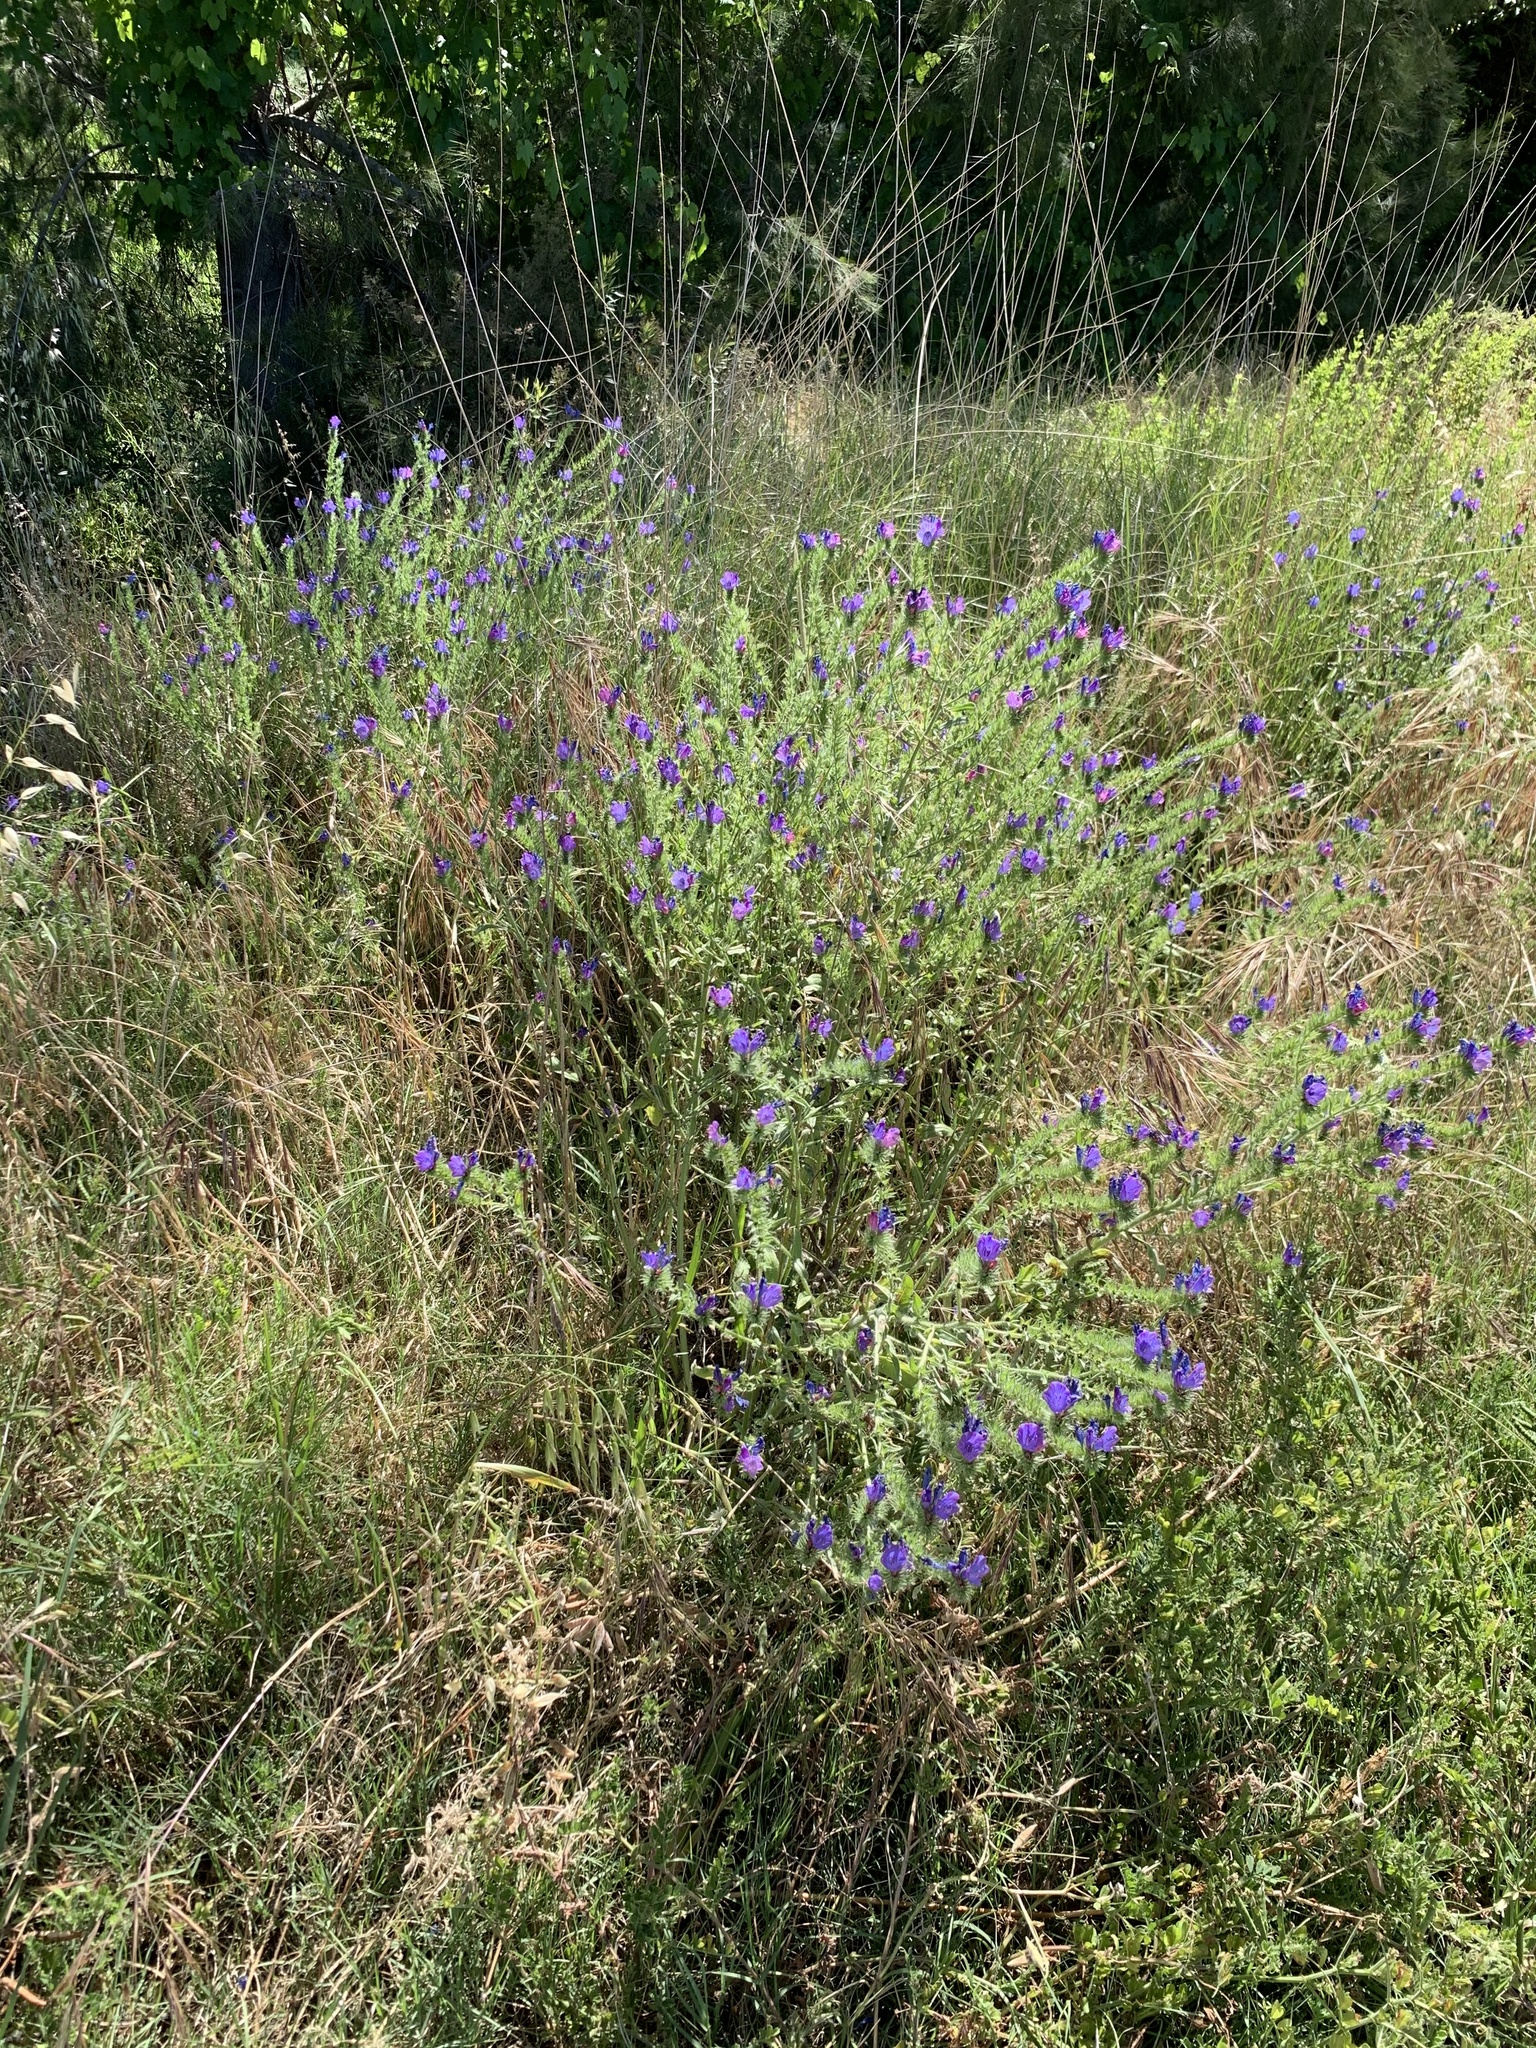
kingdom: Plantae
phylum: Tracheophyta
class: Magnoliopsida
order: Boraginales
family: Boraginaceae
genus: Echium
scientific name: Echium plantagineum
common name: Purple viper's-bugloss
